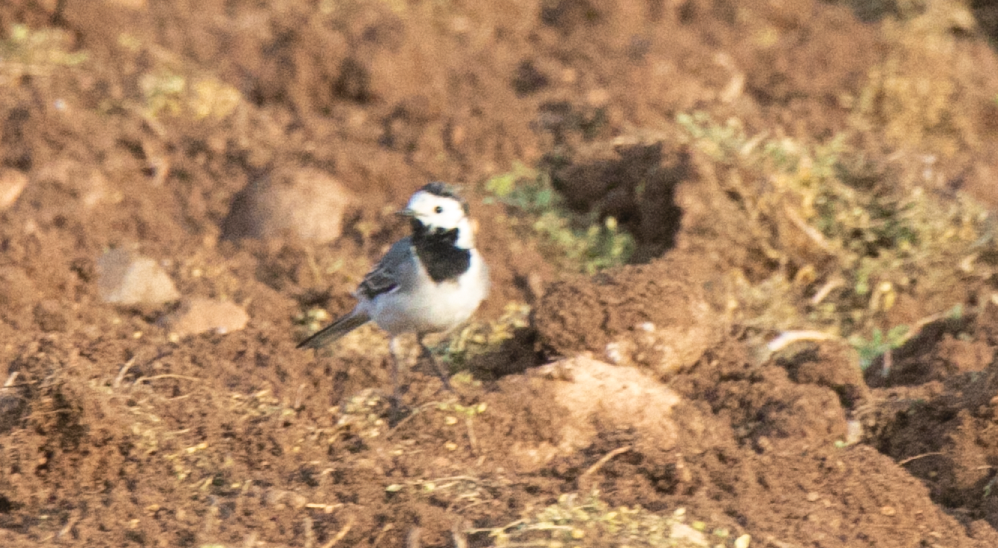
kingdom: Animalia
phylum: Chordata
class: Aves
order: Passeriformes
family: Motacillidae
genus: Motacilla
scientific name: Motacilla alba
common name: White wagtail
